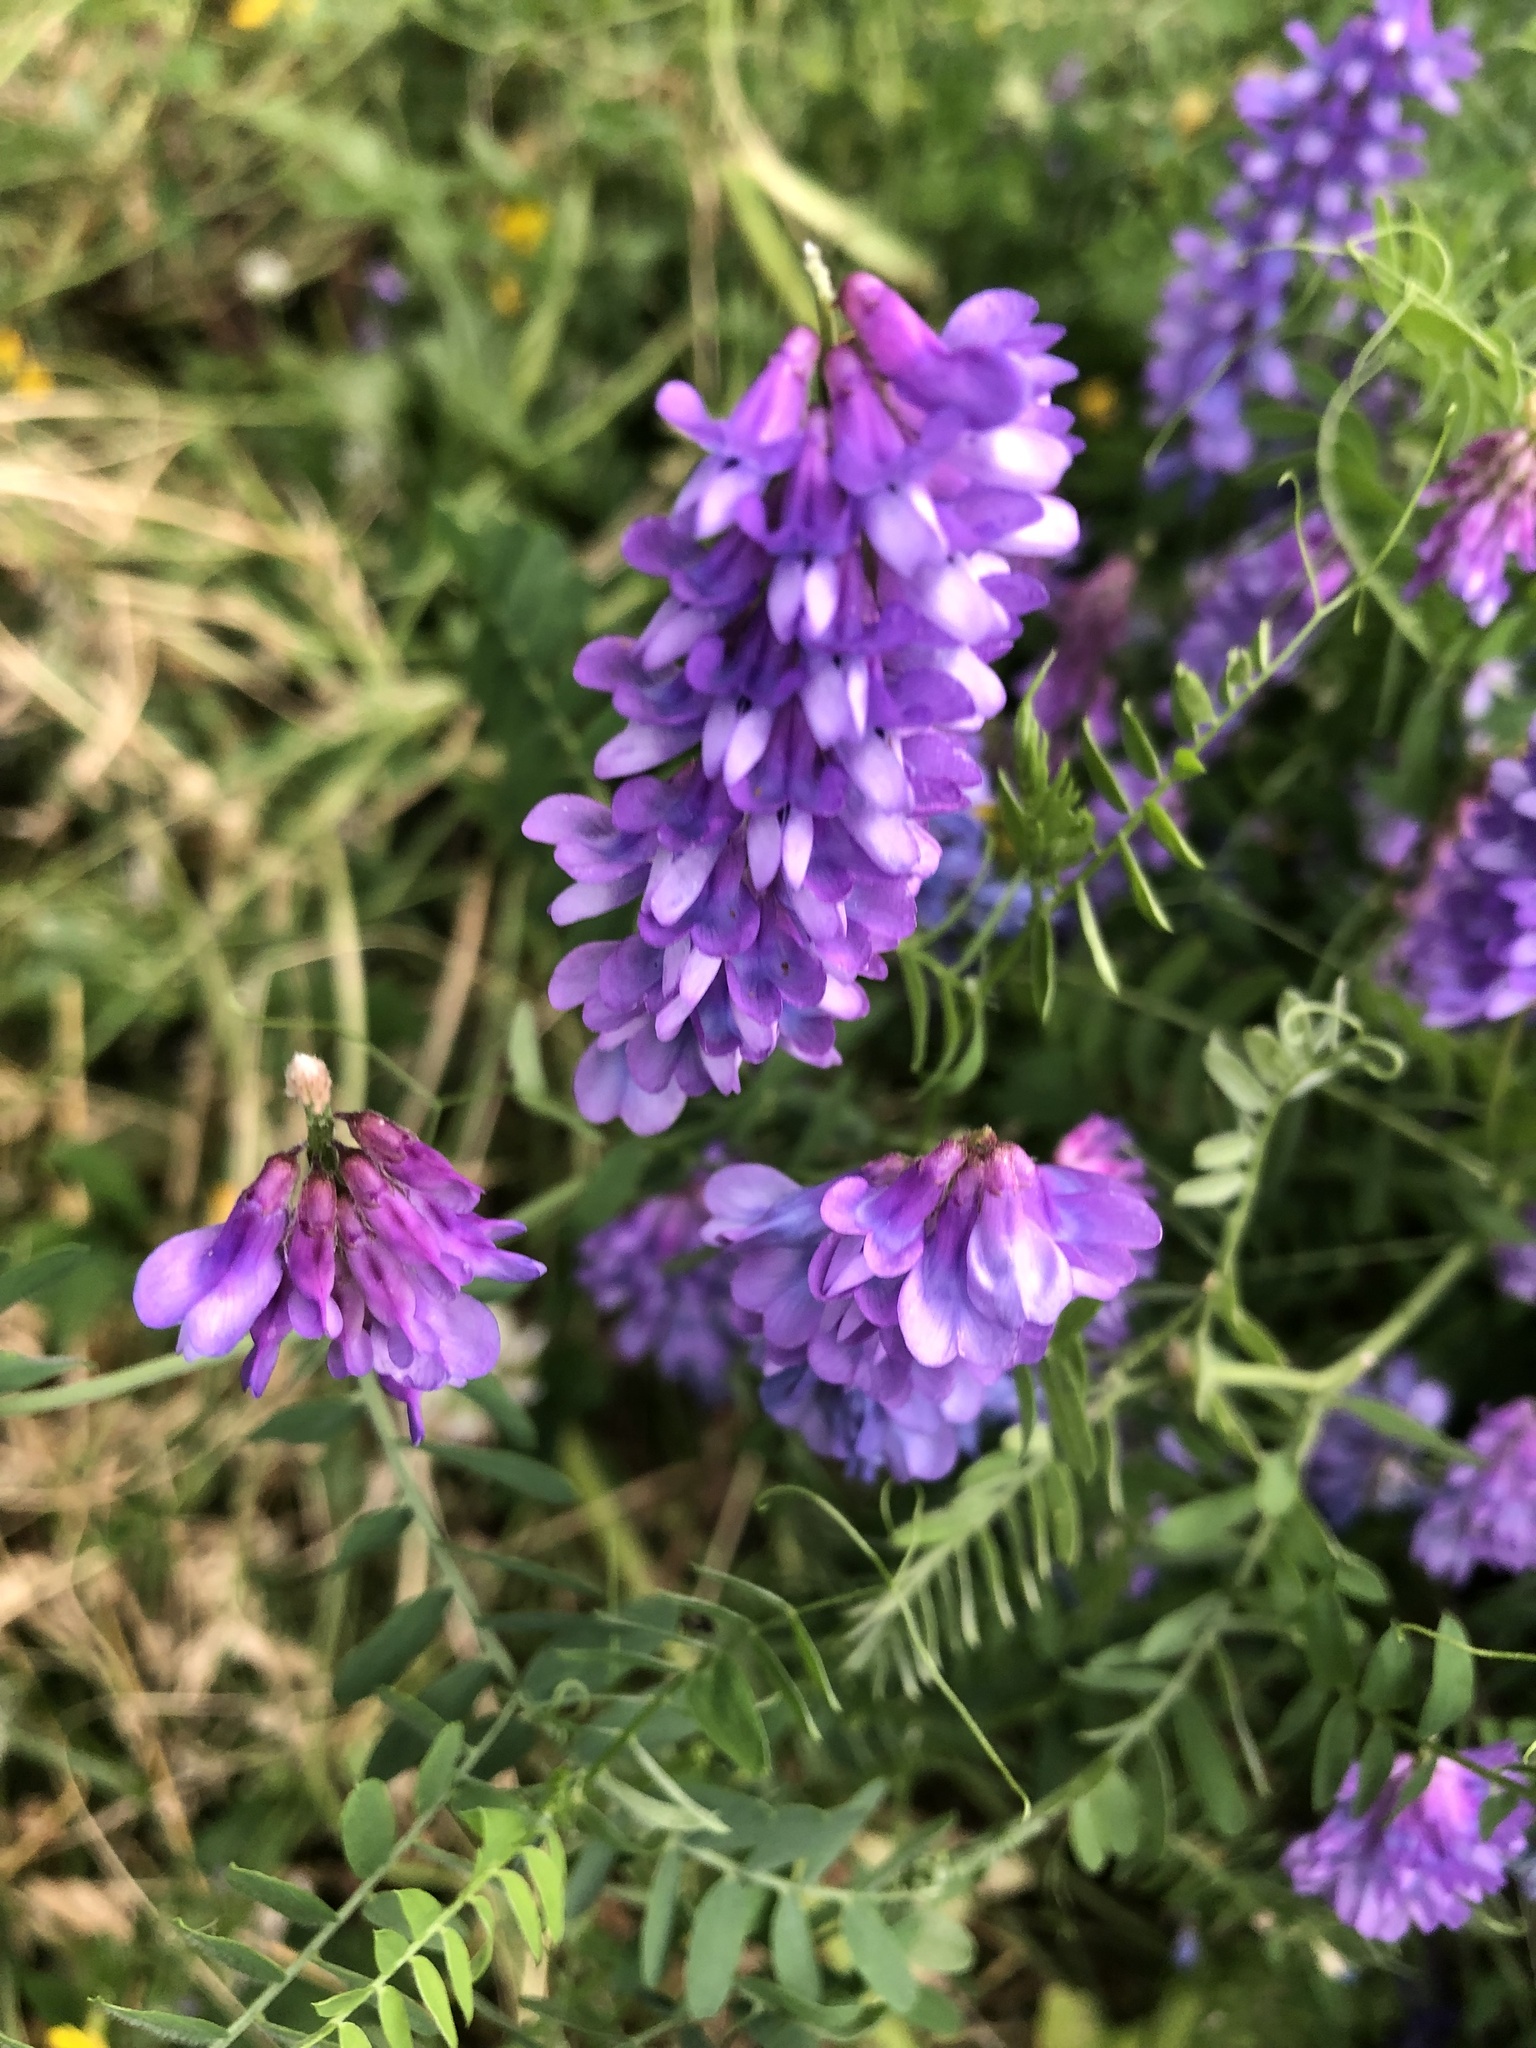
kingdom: Plantae
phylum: Tracheophyta
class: Magnoliopsida
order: Fabales
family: Fabaceae
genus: Vicia
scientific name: Vicia cracca
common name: Bird vetch
